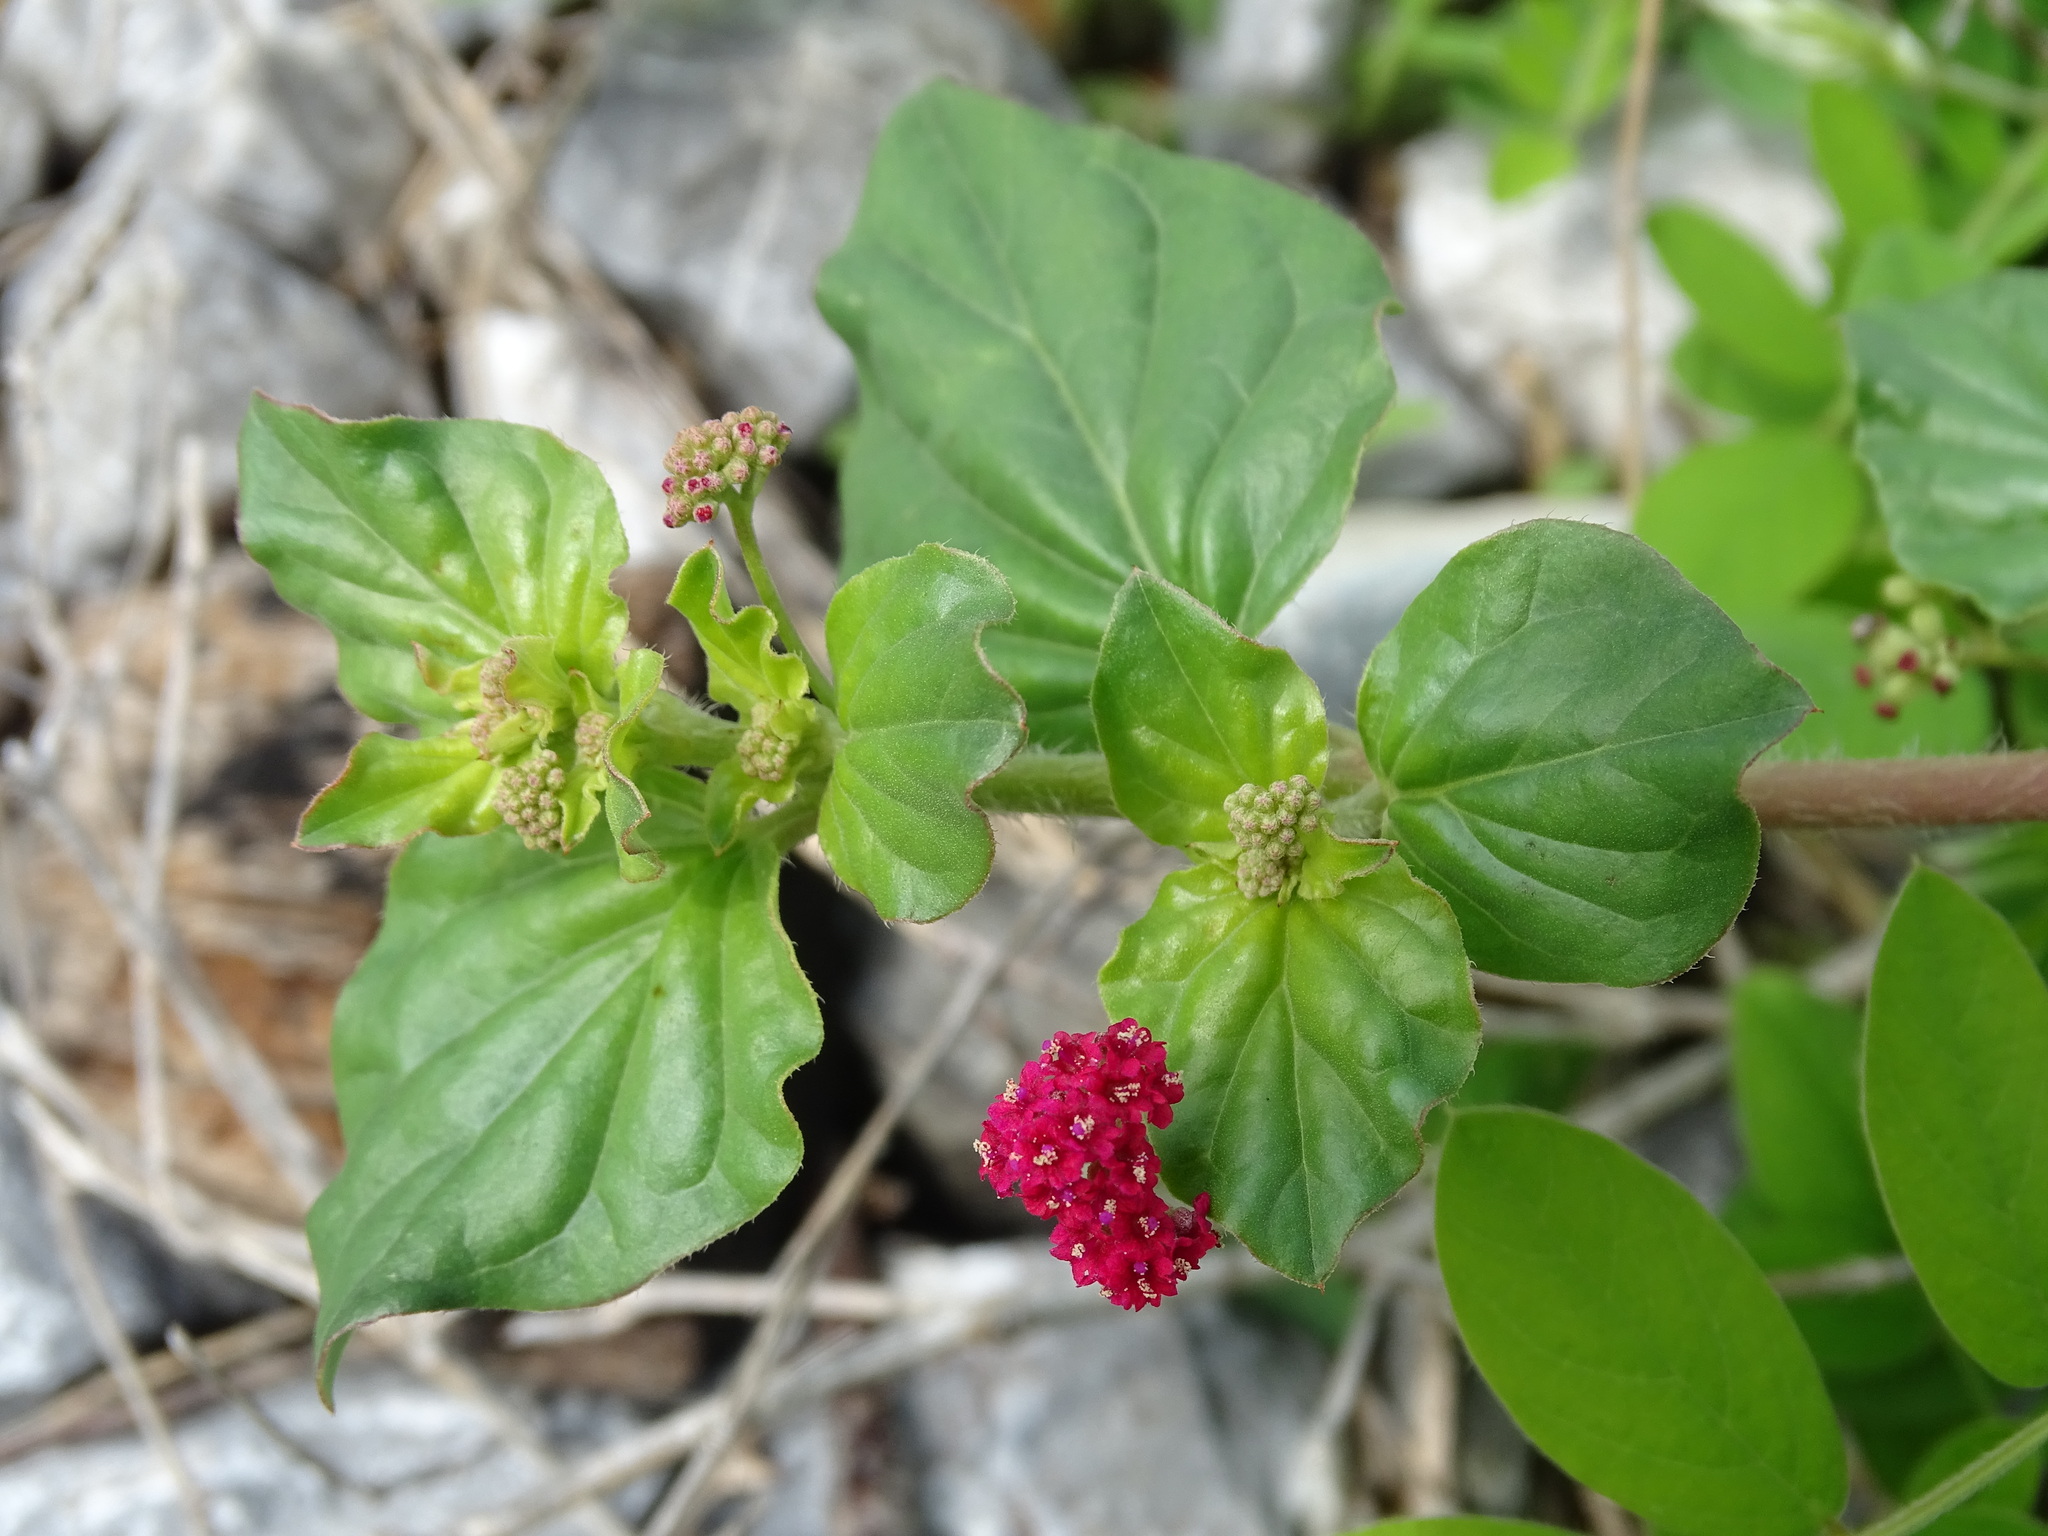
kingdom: Plantae
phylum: Tracheophyta
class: Magnoliopsida
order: Caryophyllales
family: Nyctaginaceae
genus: Boerhavia
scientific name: Boerhavia coccinea
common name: Scarlet spiderling
